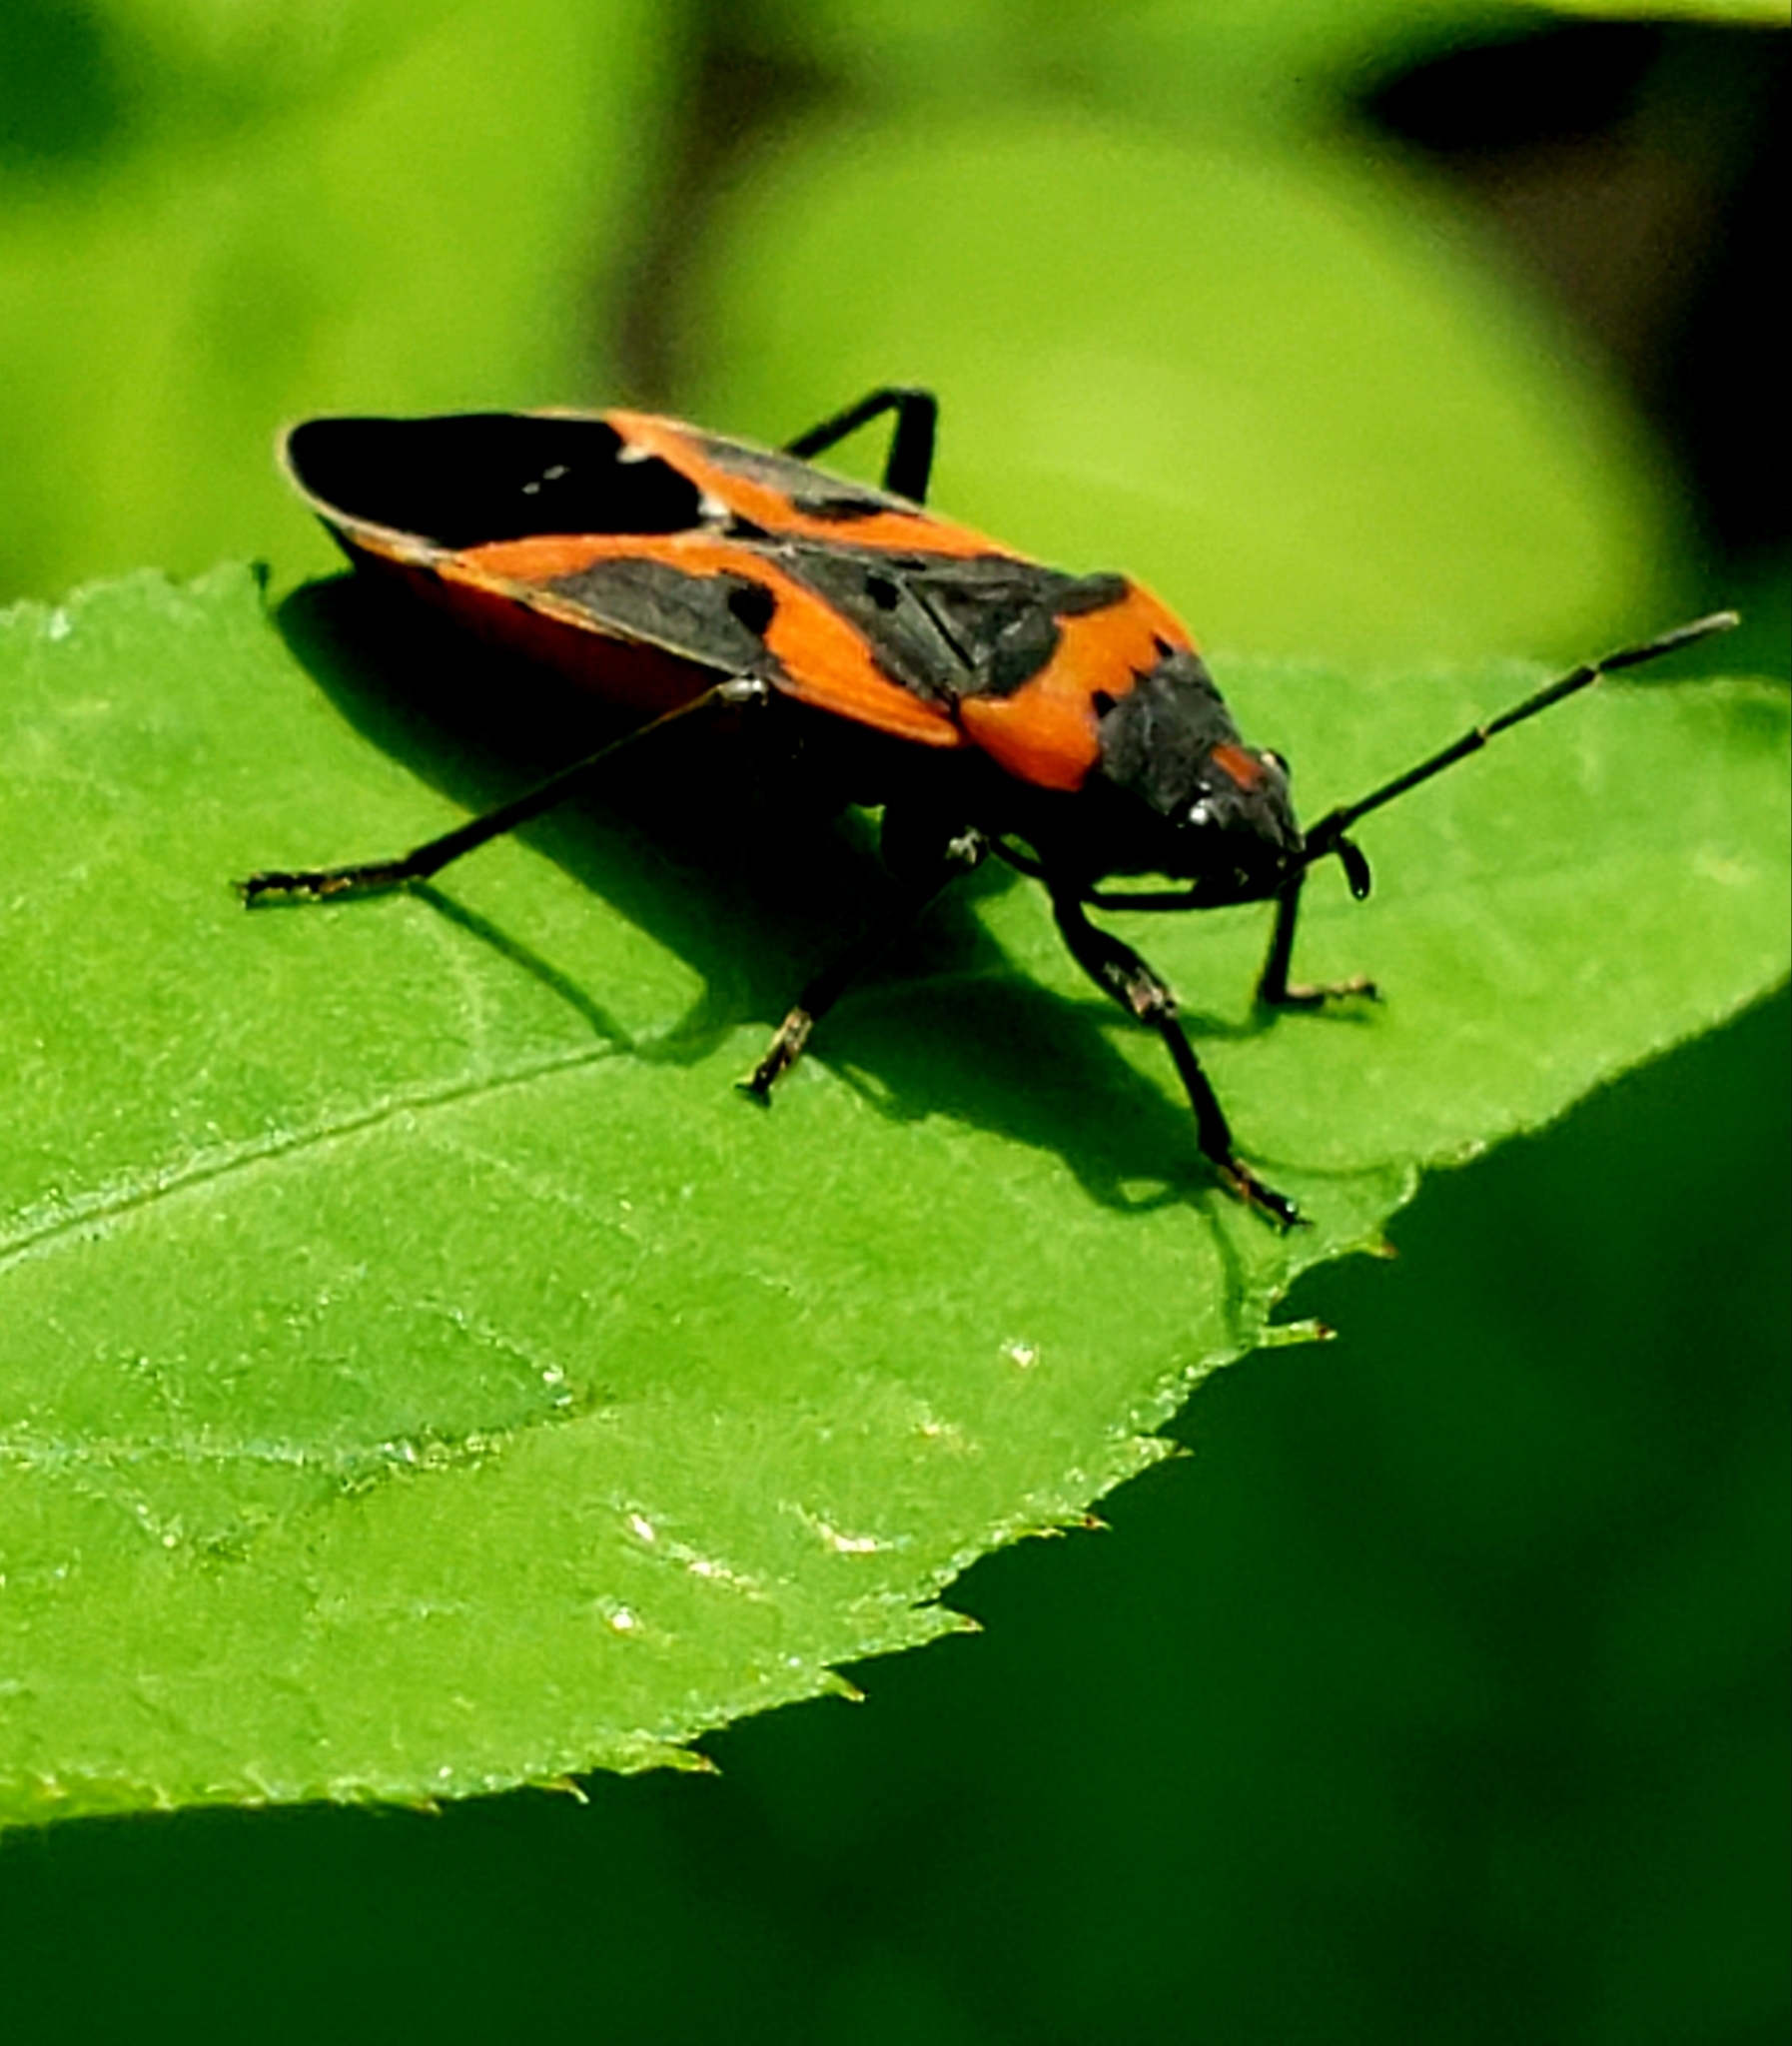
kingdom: Animalia
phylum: Arthropoda
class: Insecta
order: Hemiptera
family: Lygaeidae
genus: Lygaeus
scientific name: Lygaeus kalmii
